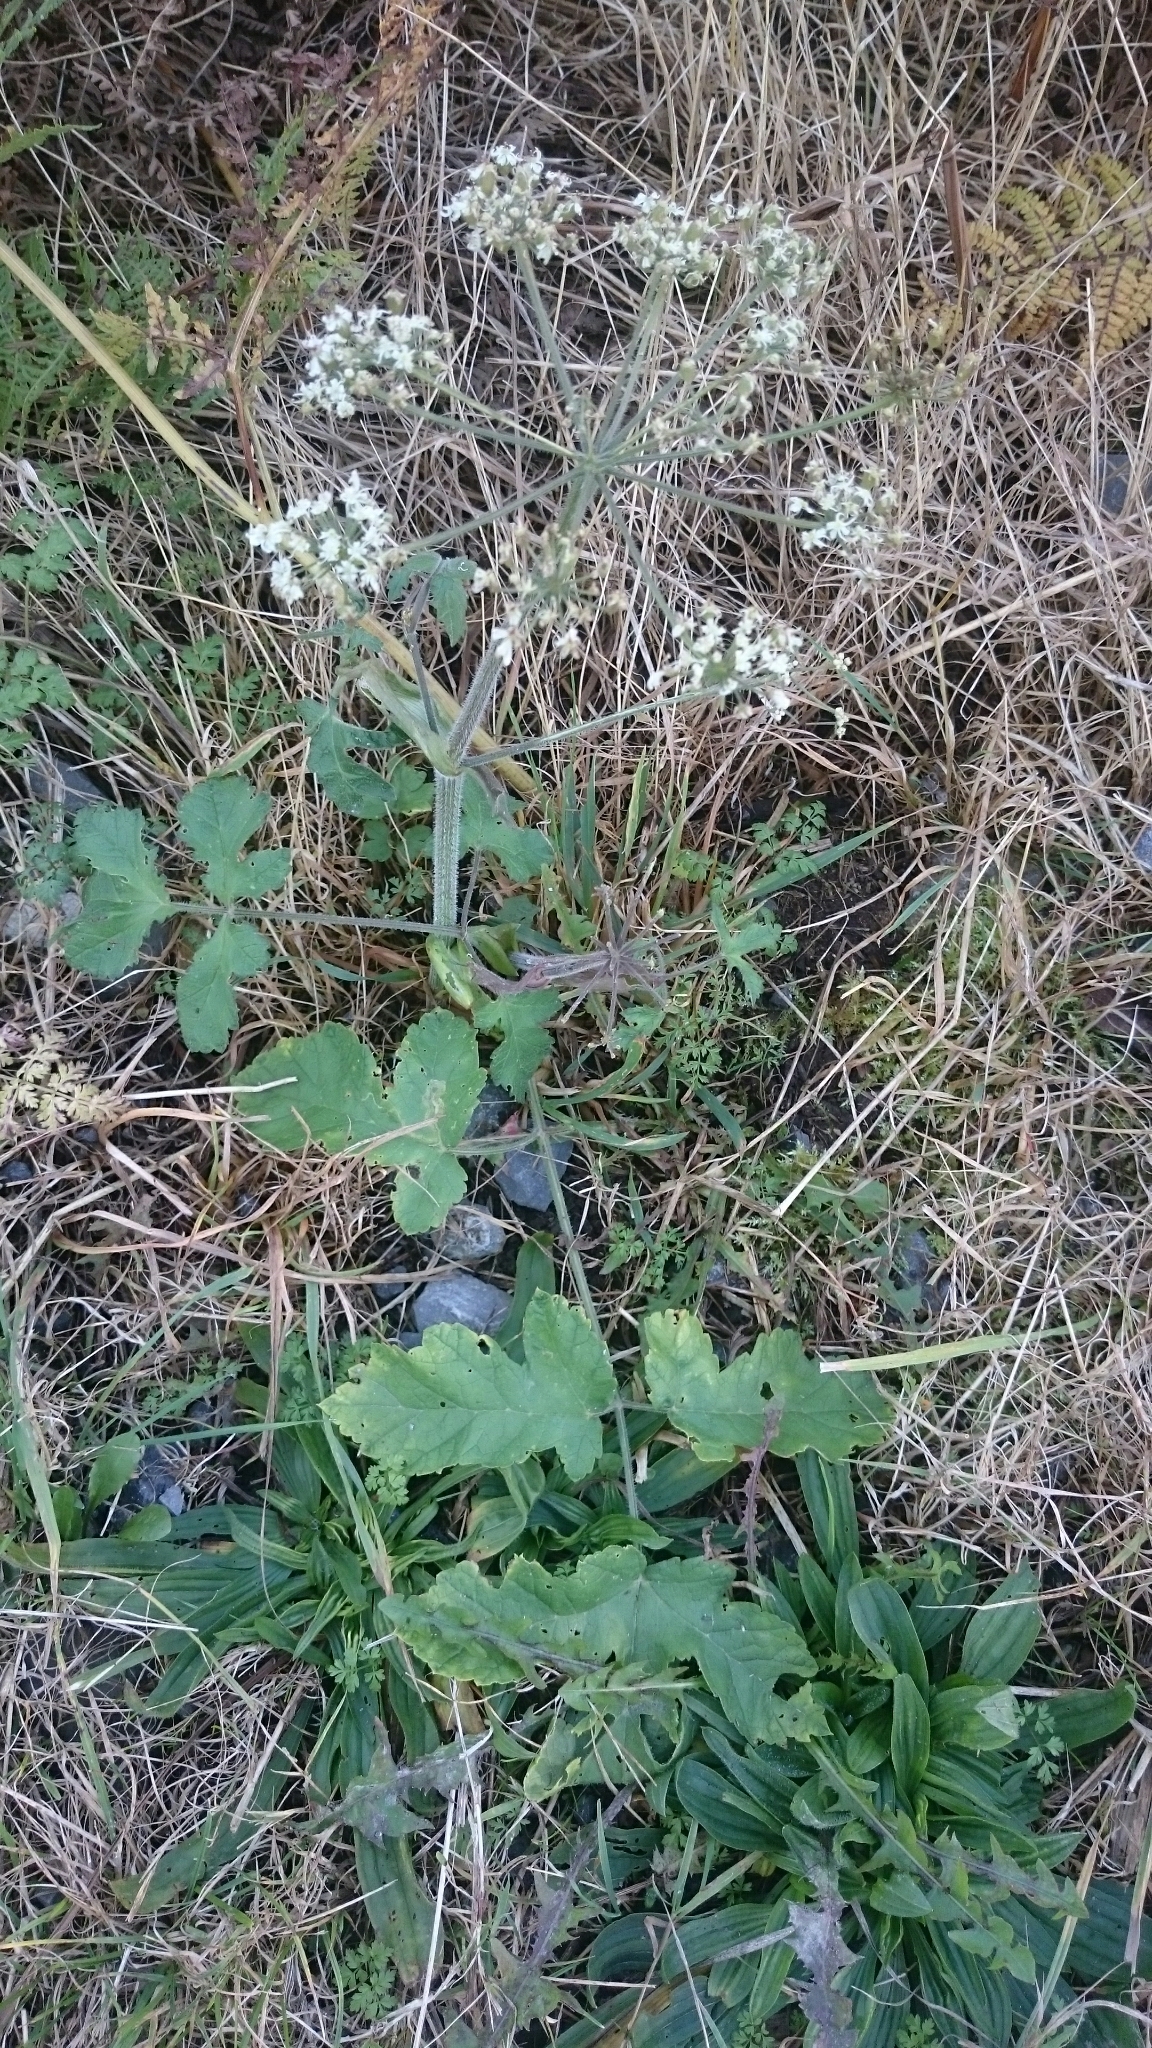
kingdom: Plantae
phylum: Tracheophyta
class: Magnoliopsida
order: Apiales
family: Apiaceae
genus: Heracleum
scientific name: Heracleum sphondylium
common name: Hogweed
